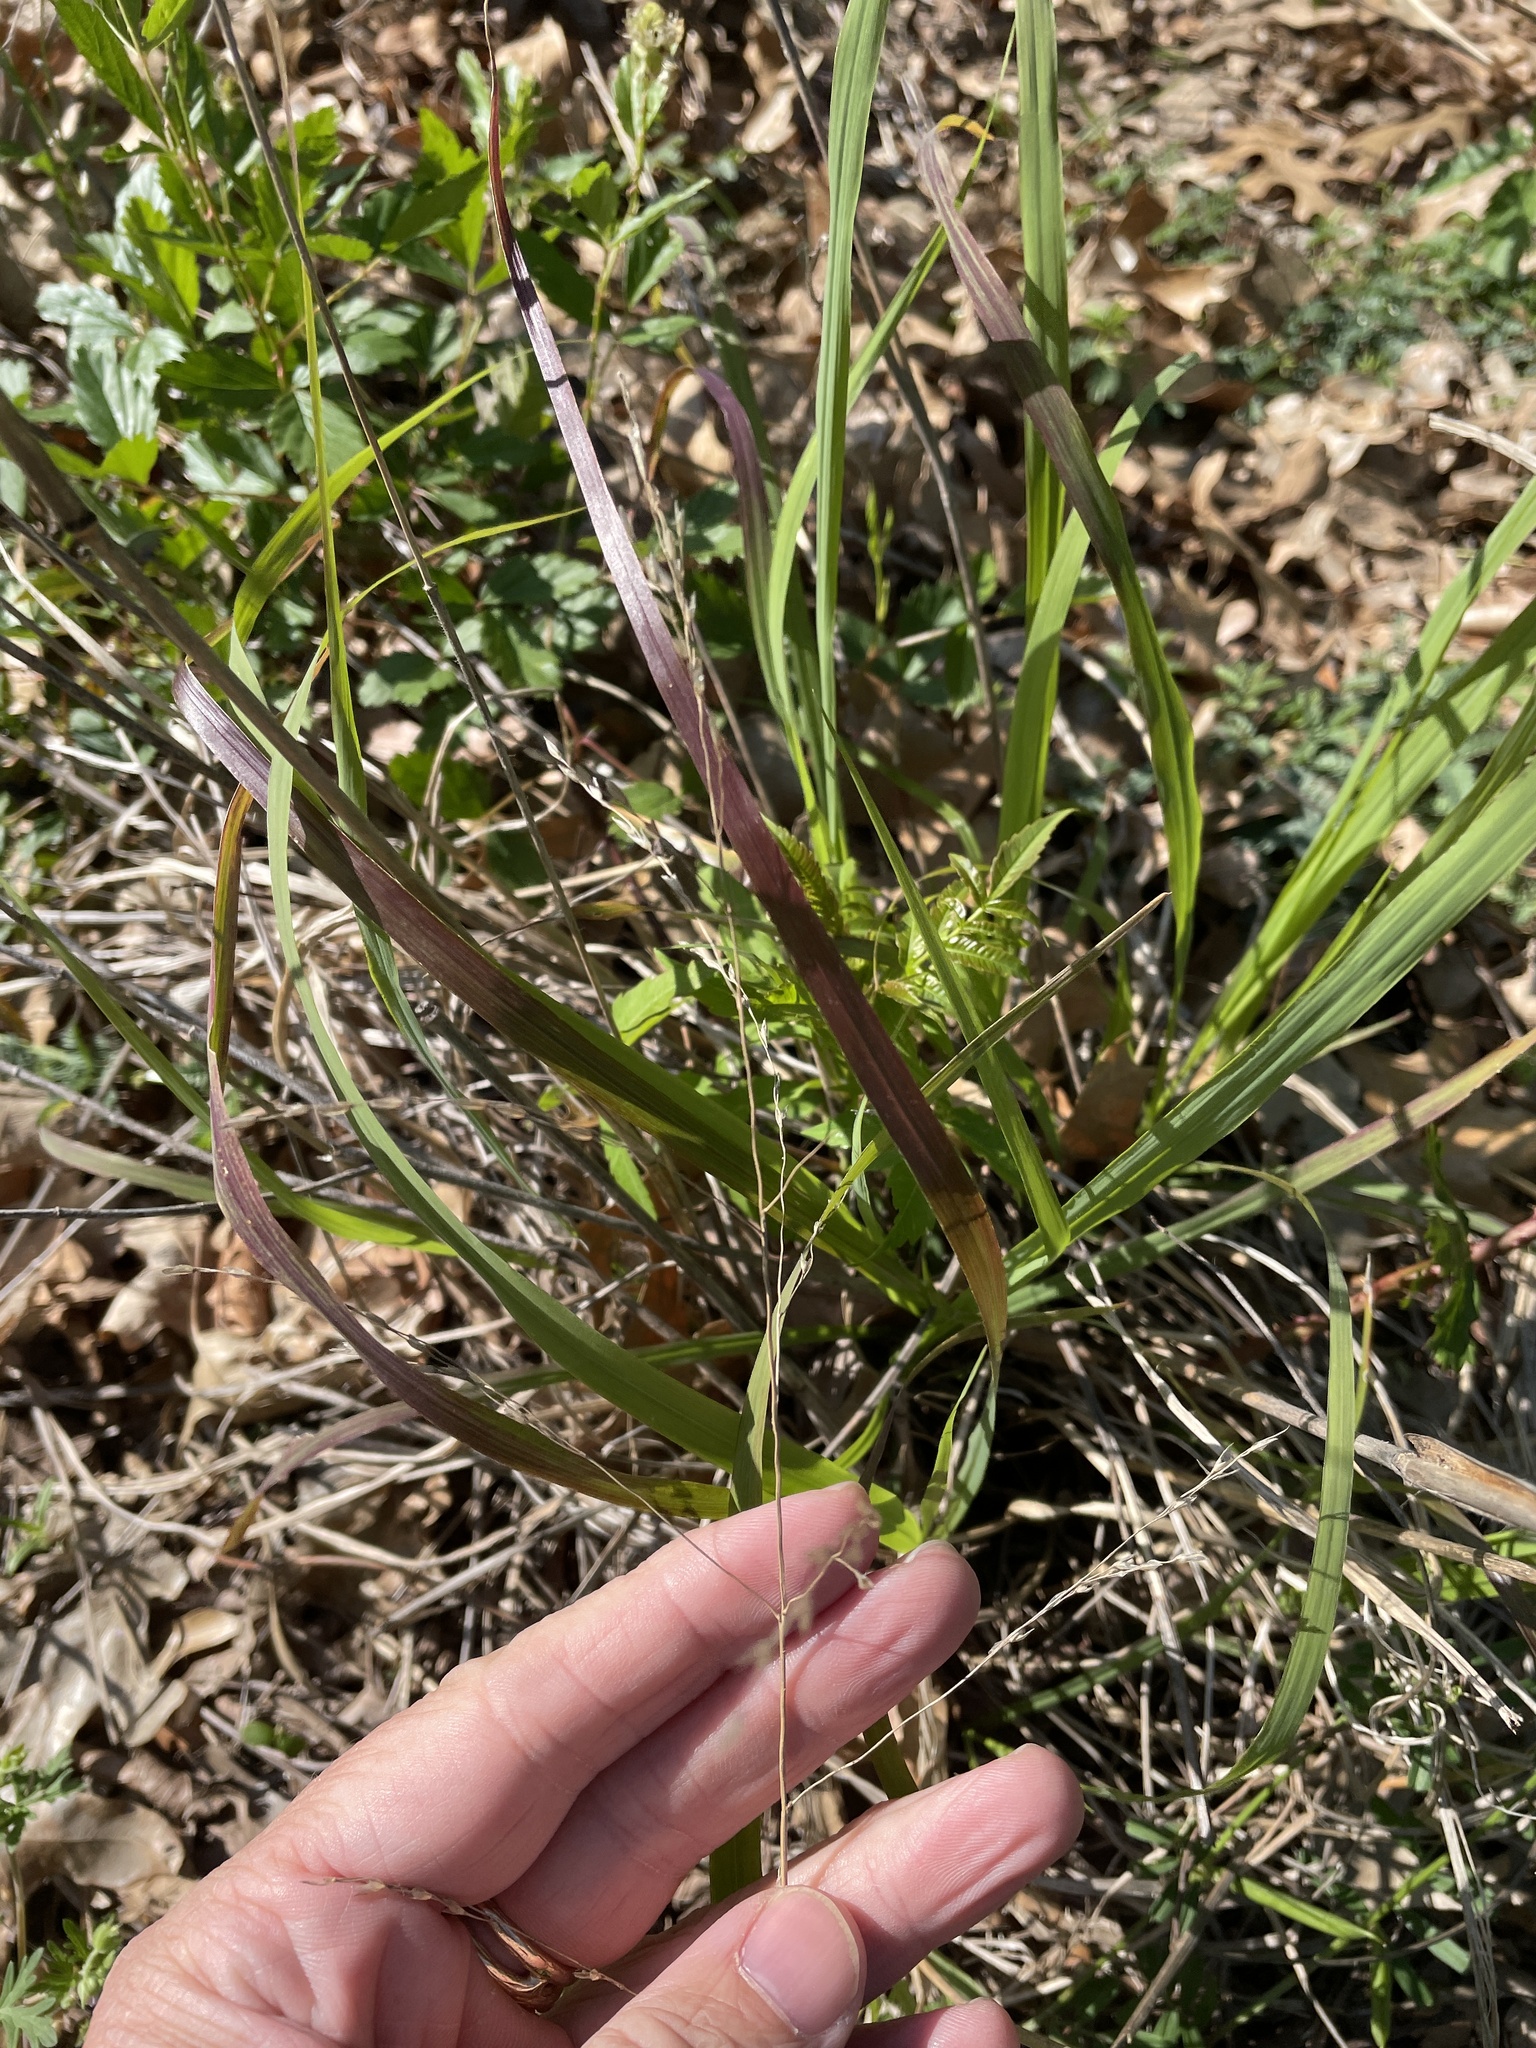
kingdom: Plantae
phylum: Tracheophyta
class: Liliopsida
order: Poales
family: Poaceae
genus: Tridens
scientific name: Tridens flavus
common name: Purpletop
